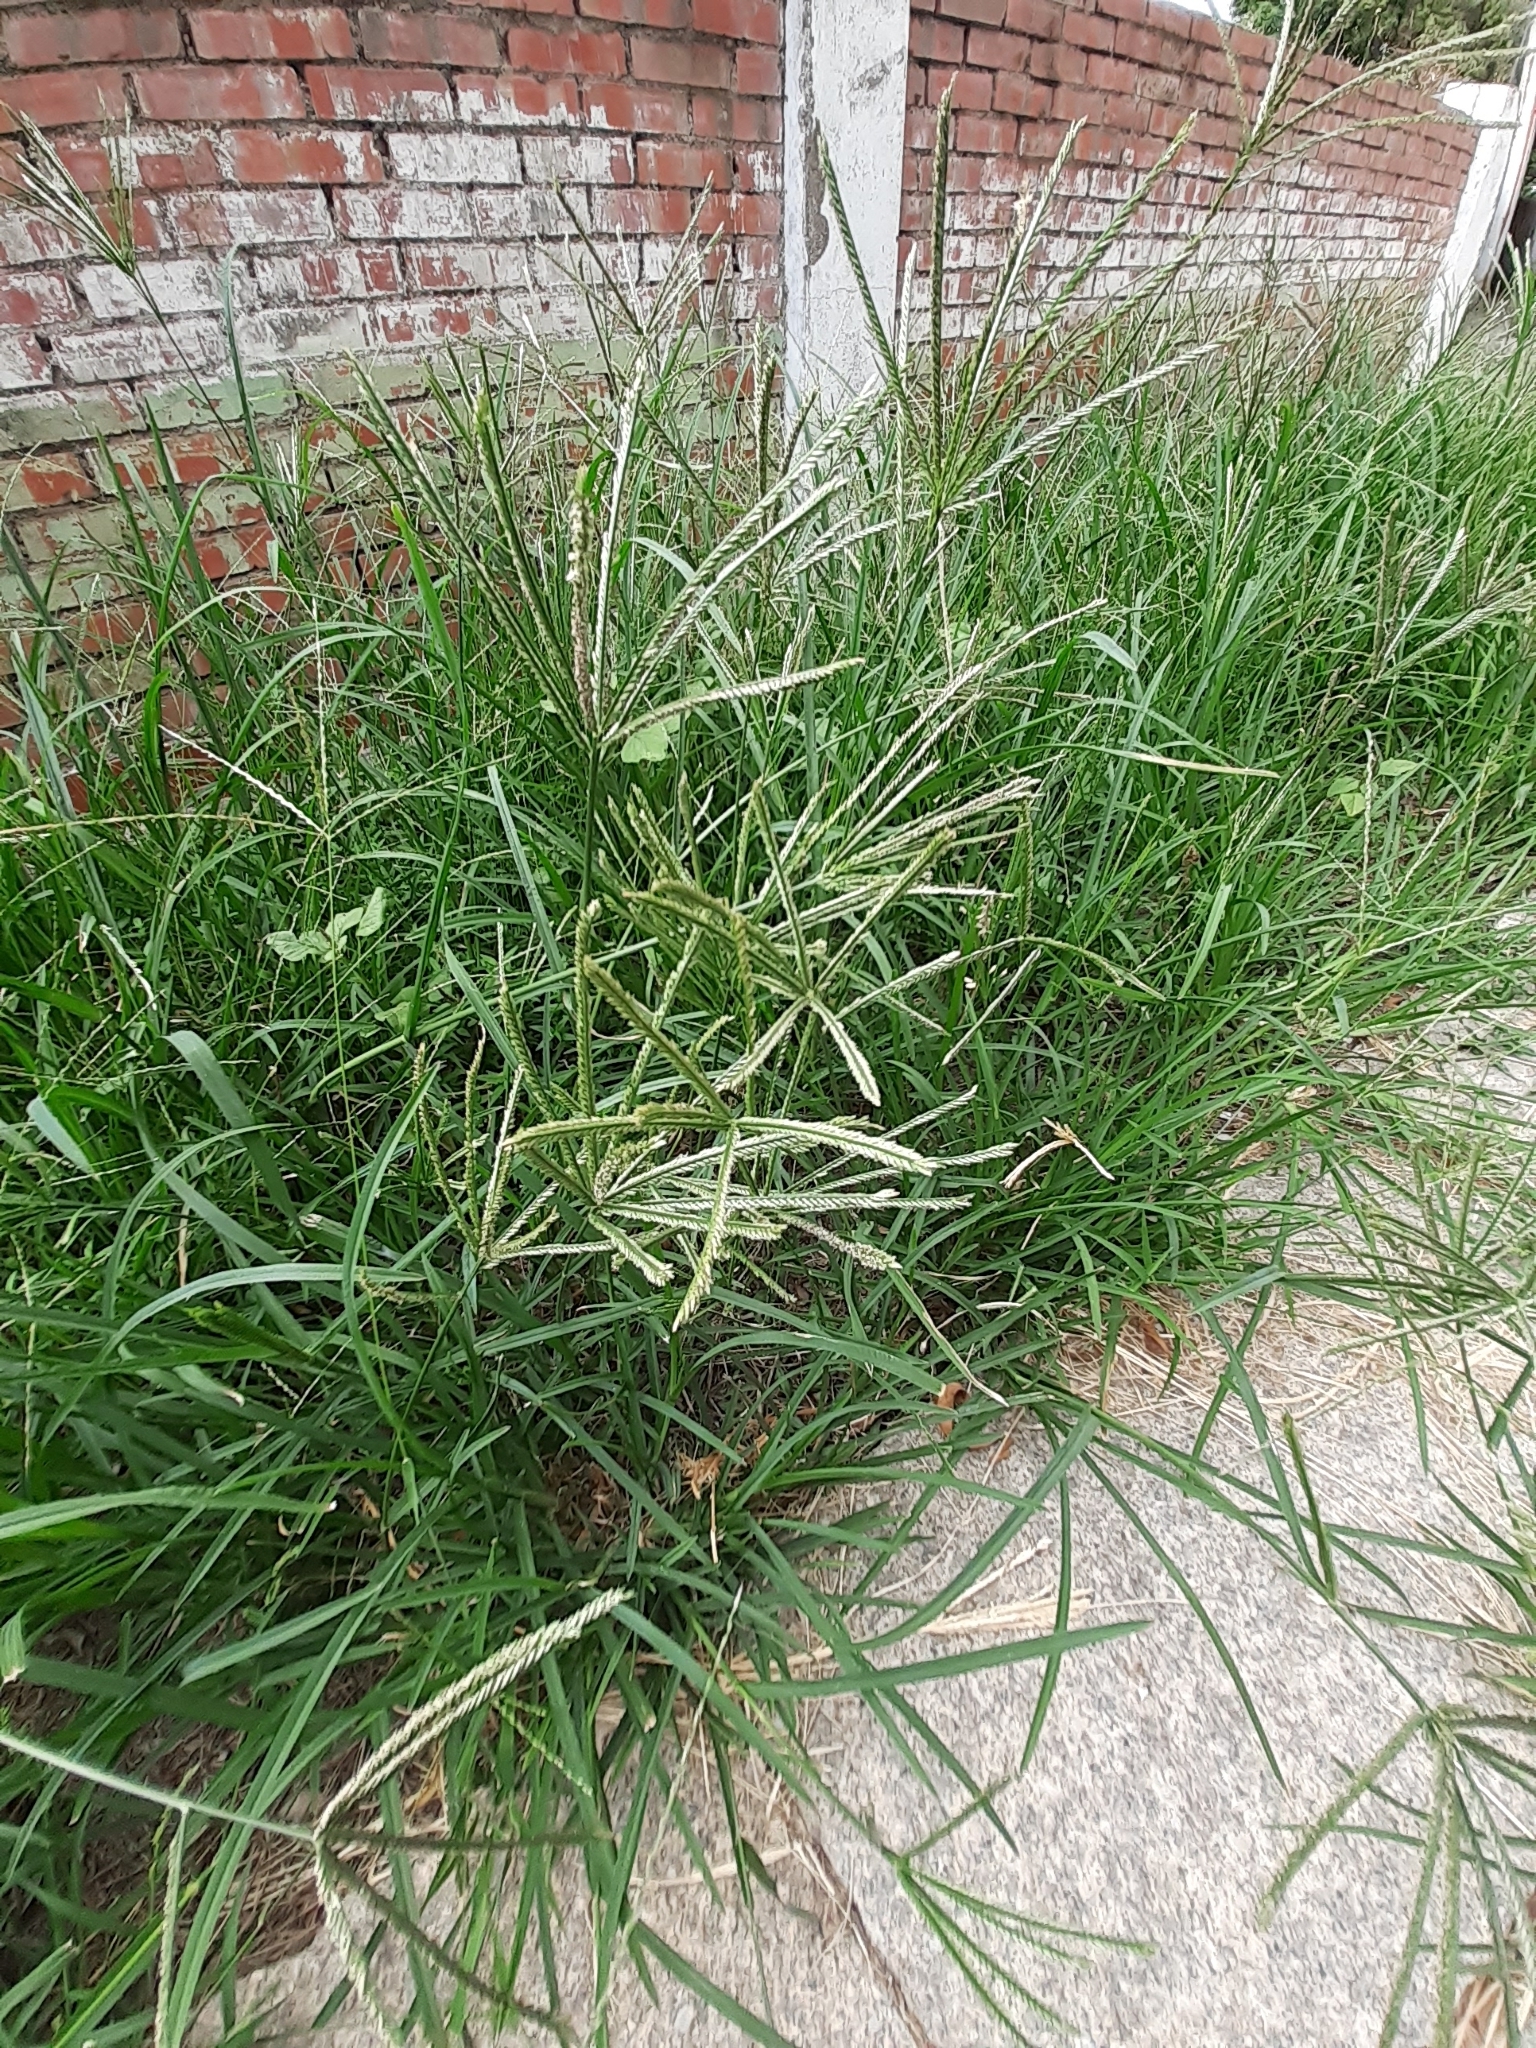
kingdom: Plantae
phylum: Tracheophyta
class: Liliopsida
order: Poales
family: Poaceae
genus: Eleusine
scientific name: Eleusine indica
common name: Yard-grass
